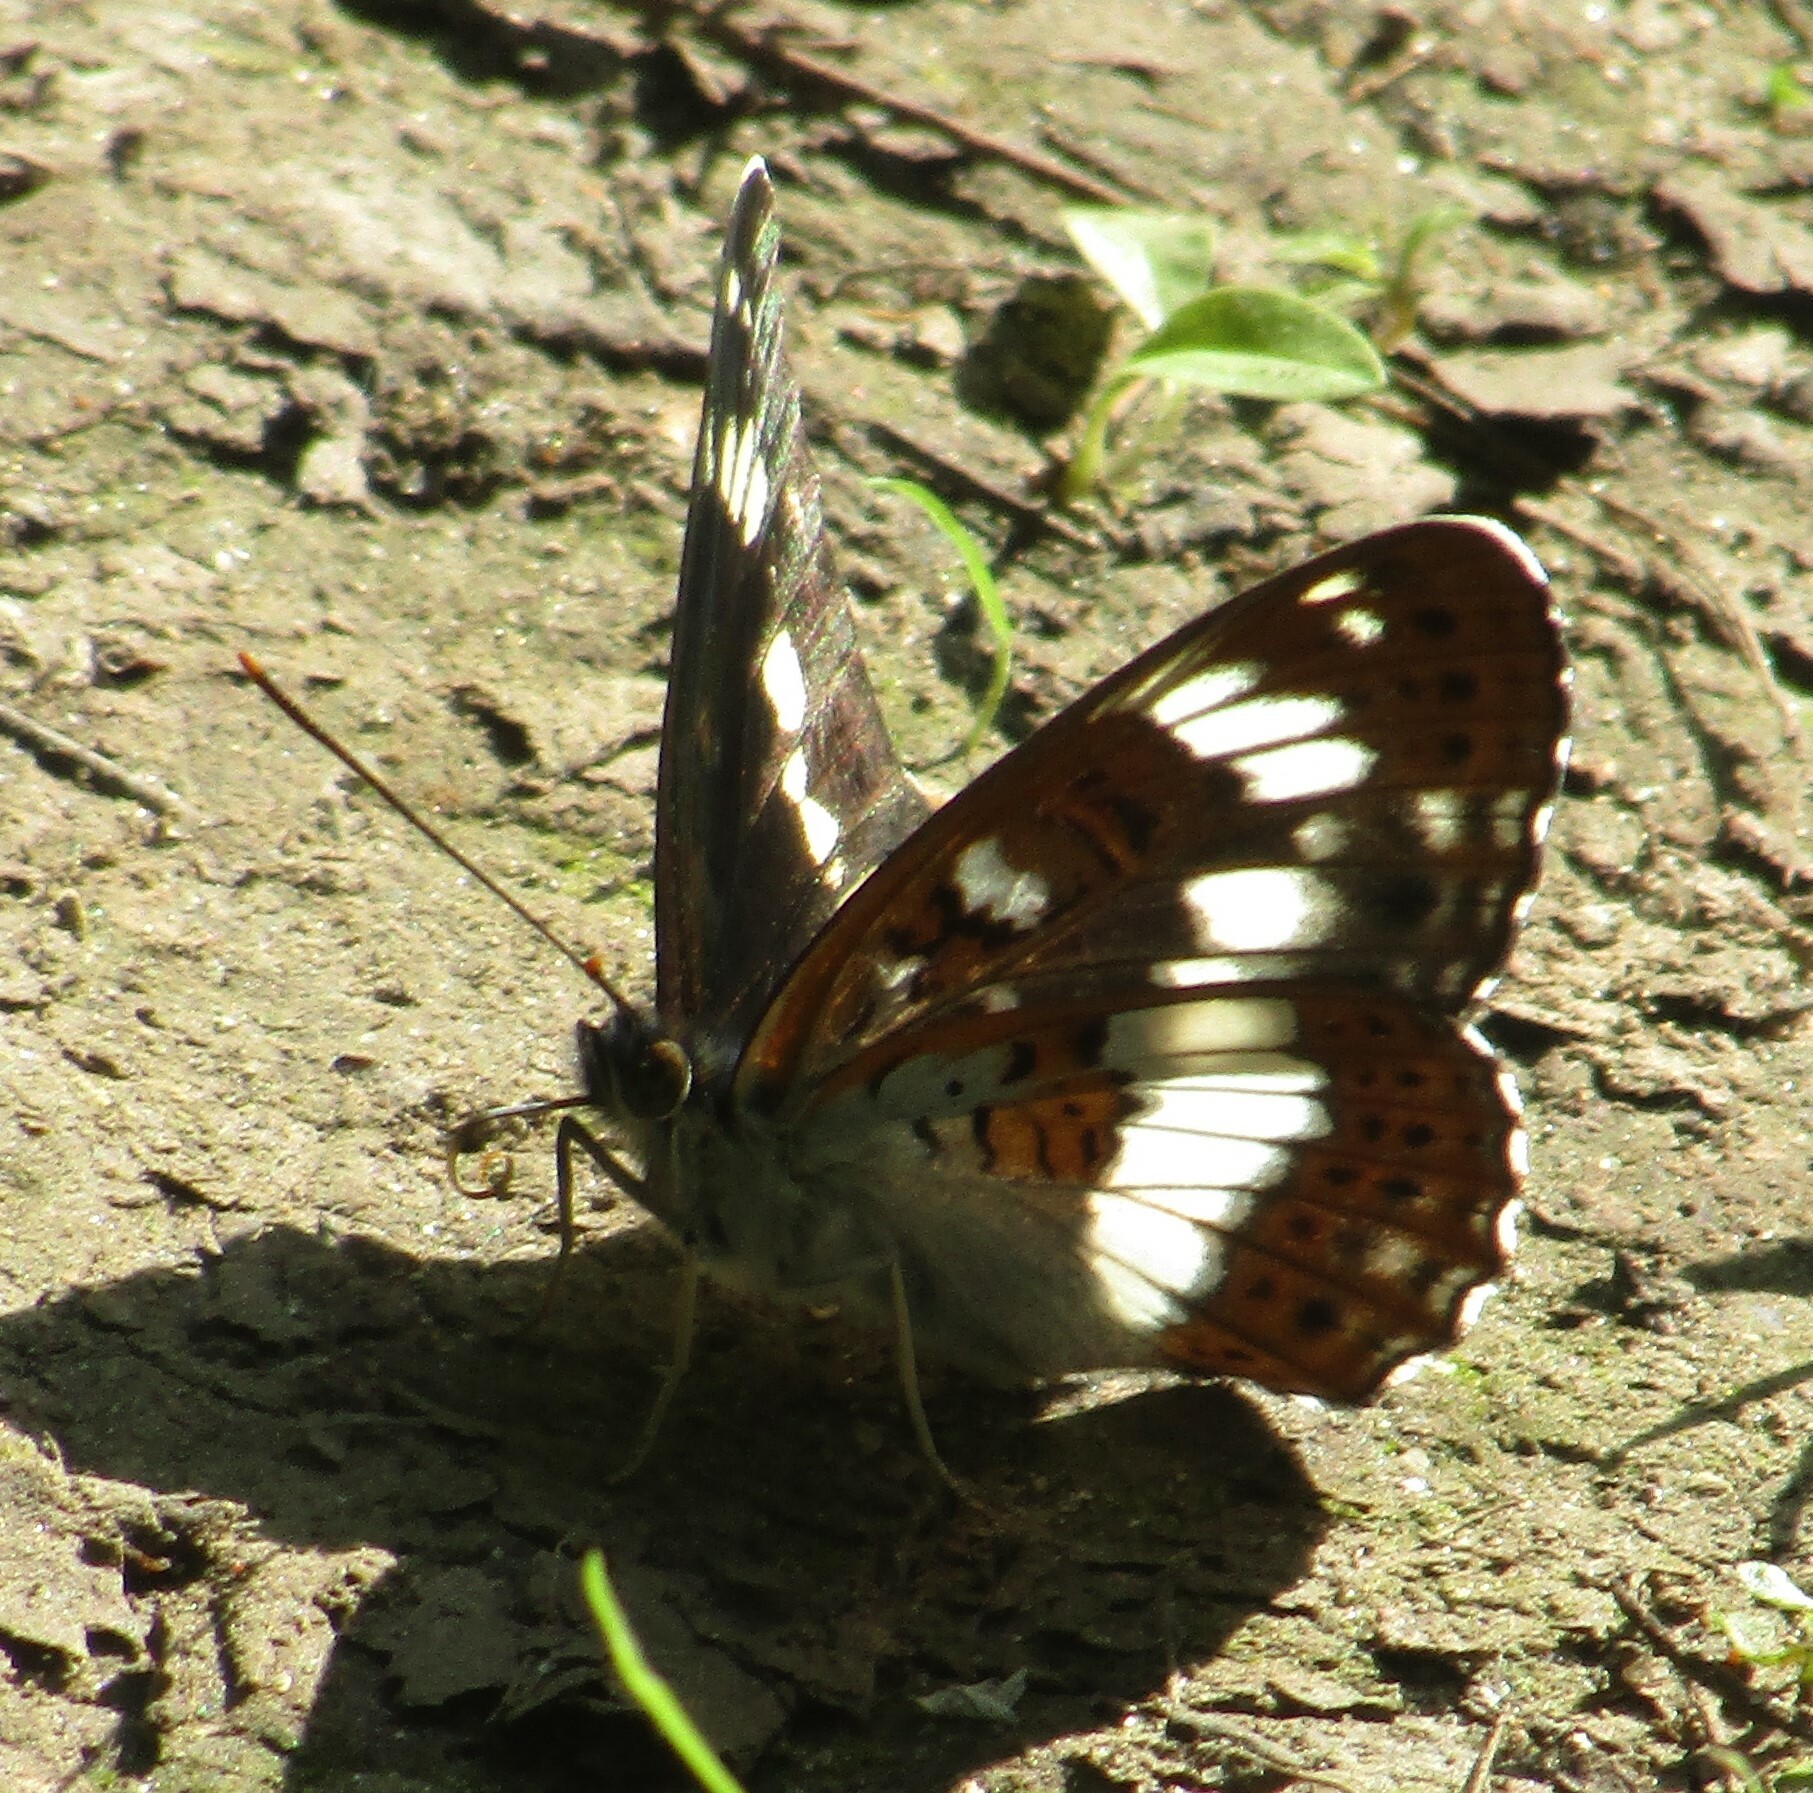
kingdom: Animalia
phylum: Arthropoda
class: Insecta
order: Lepidoptera
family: Nymphalidae
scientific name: Nymphalidae
